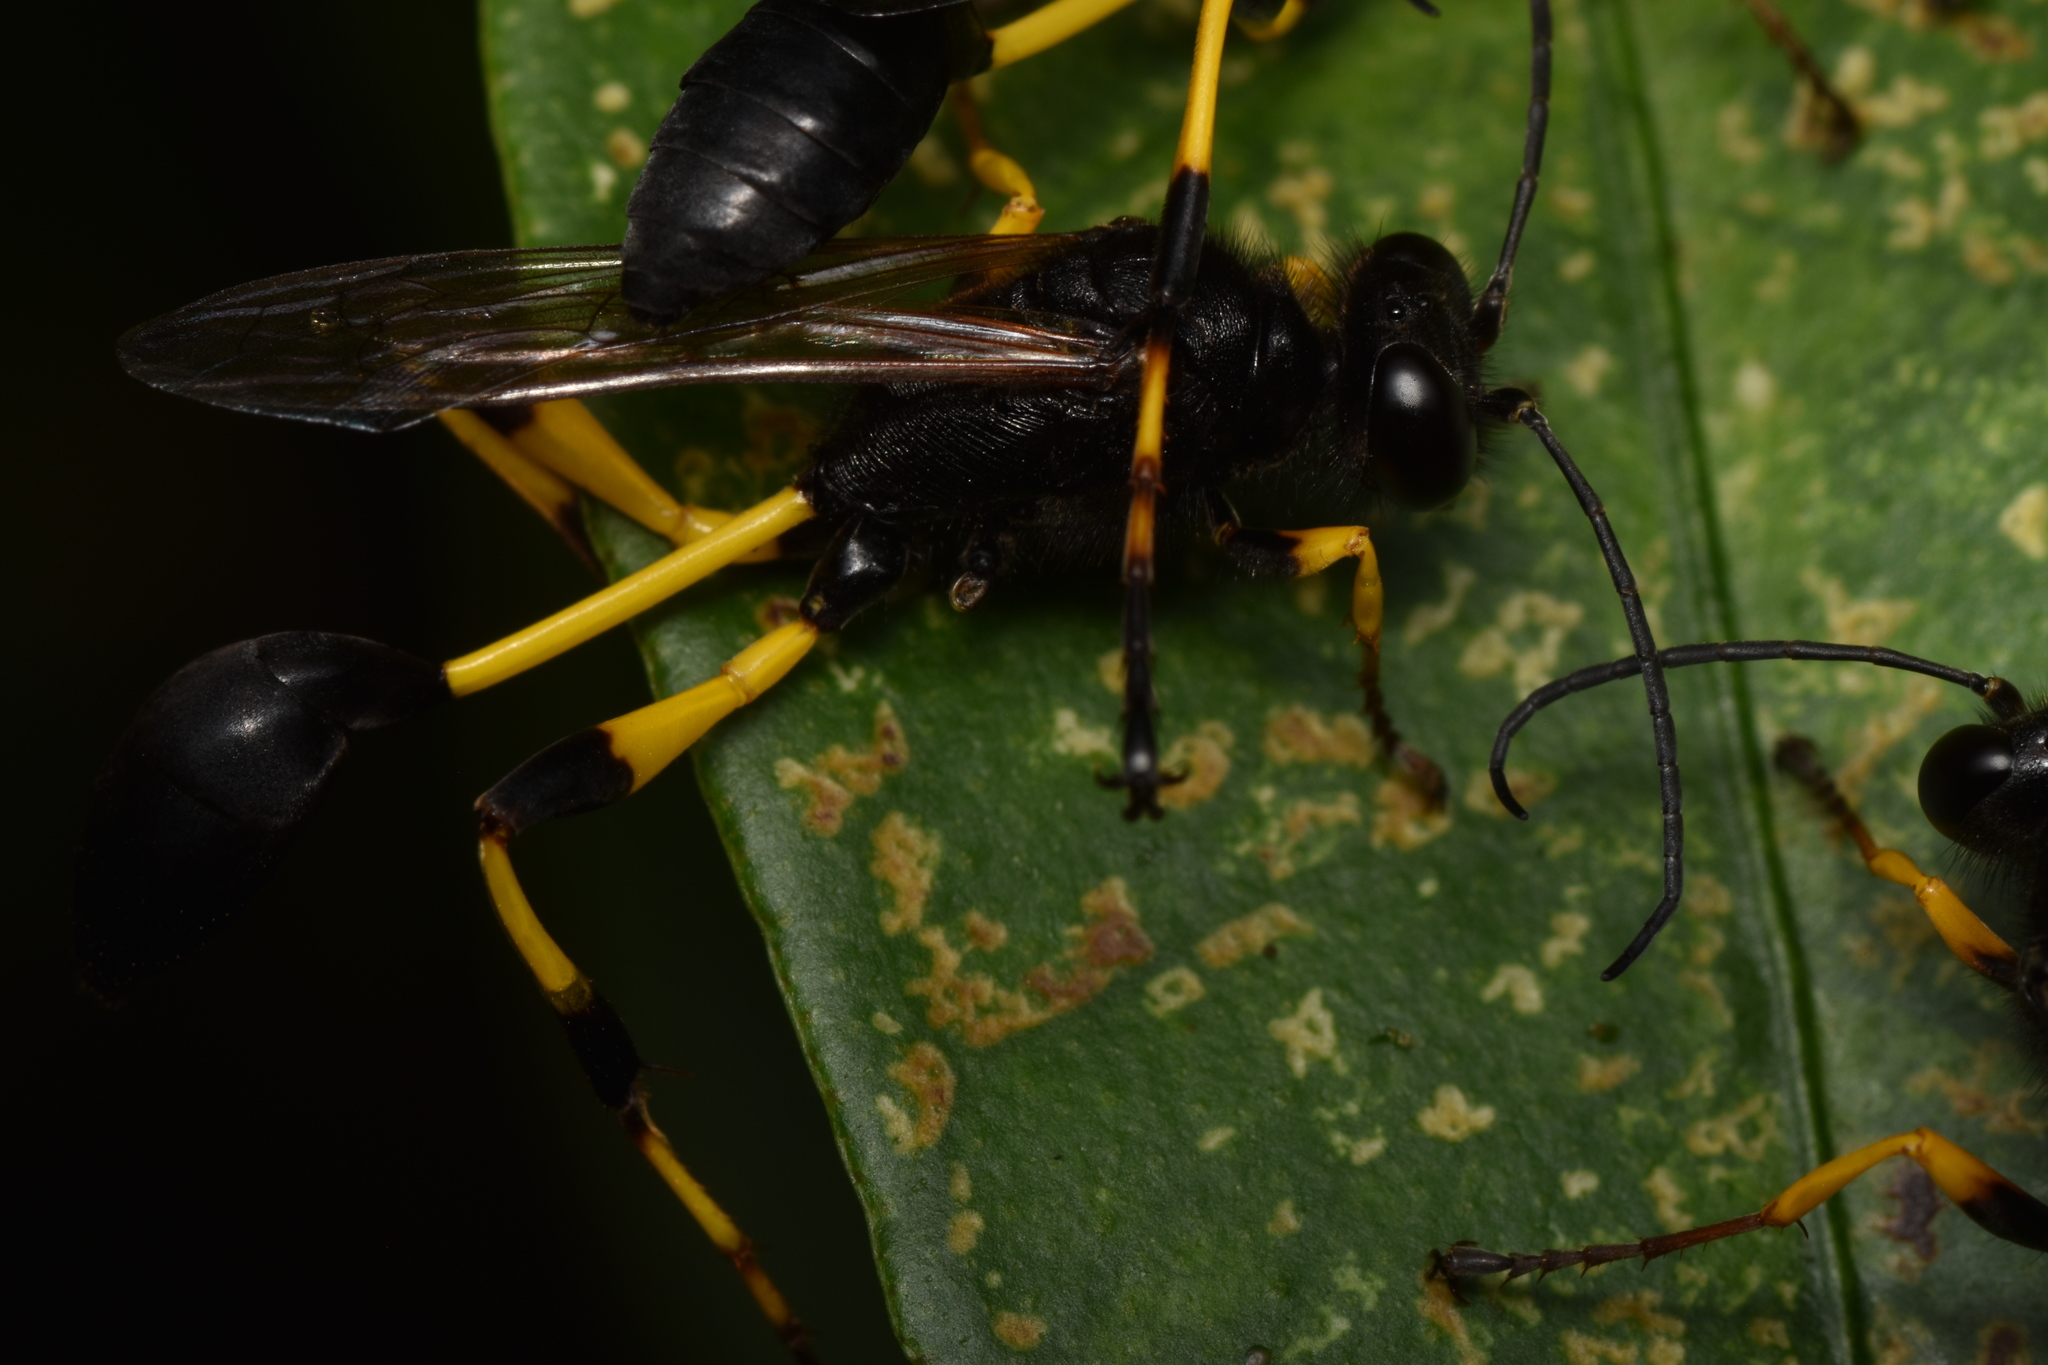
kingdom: Animalia
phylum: Arthropoda
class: Insecta
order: Hymenoptera
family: Sphecidae
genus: Sceliphron
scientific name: Sceliphron spirifex
